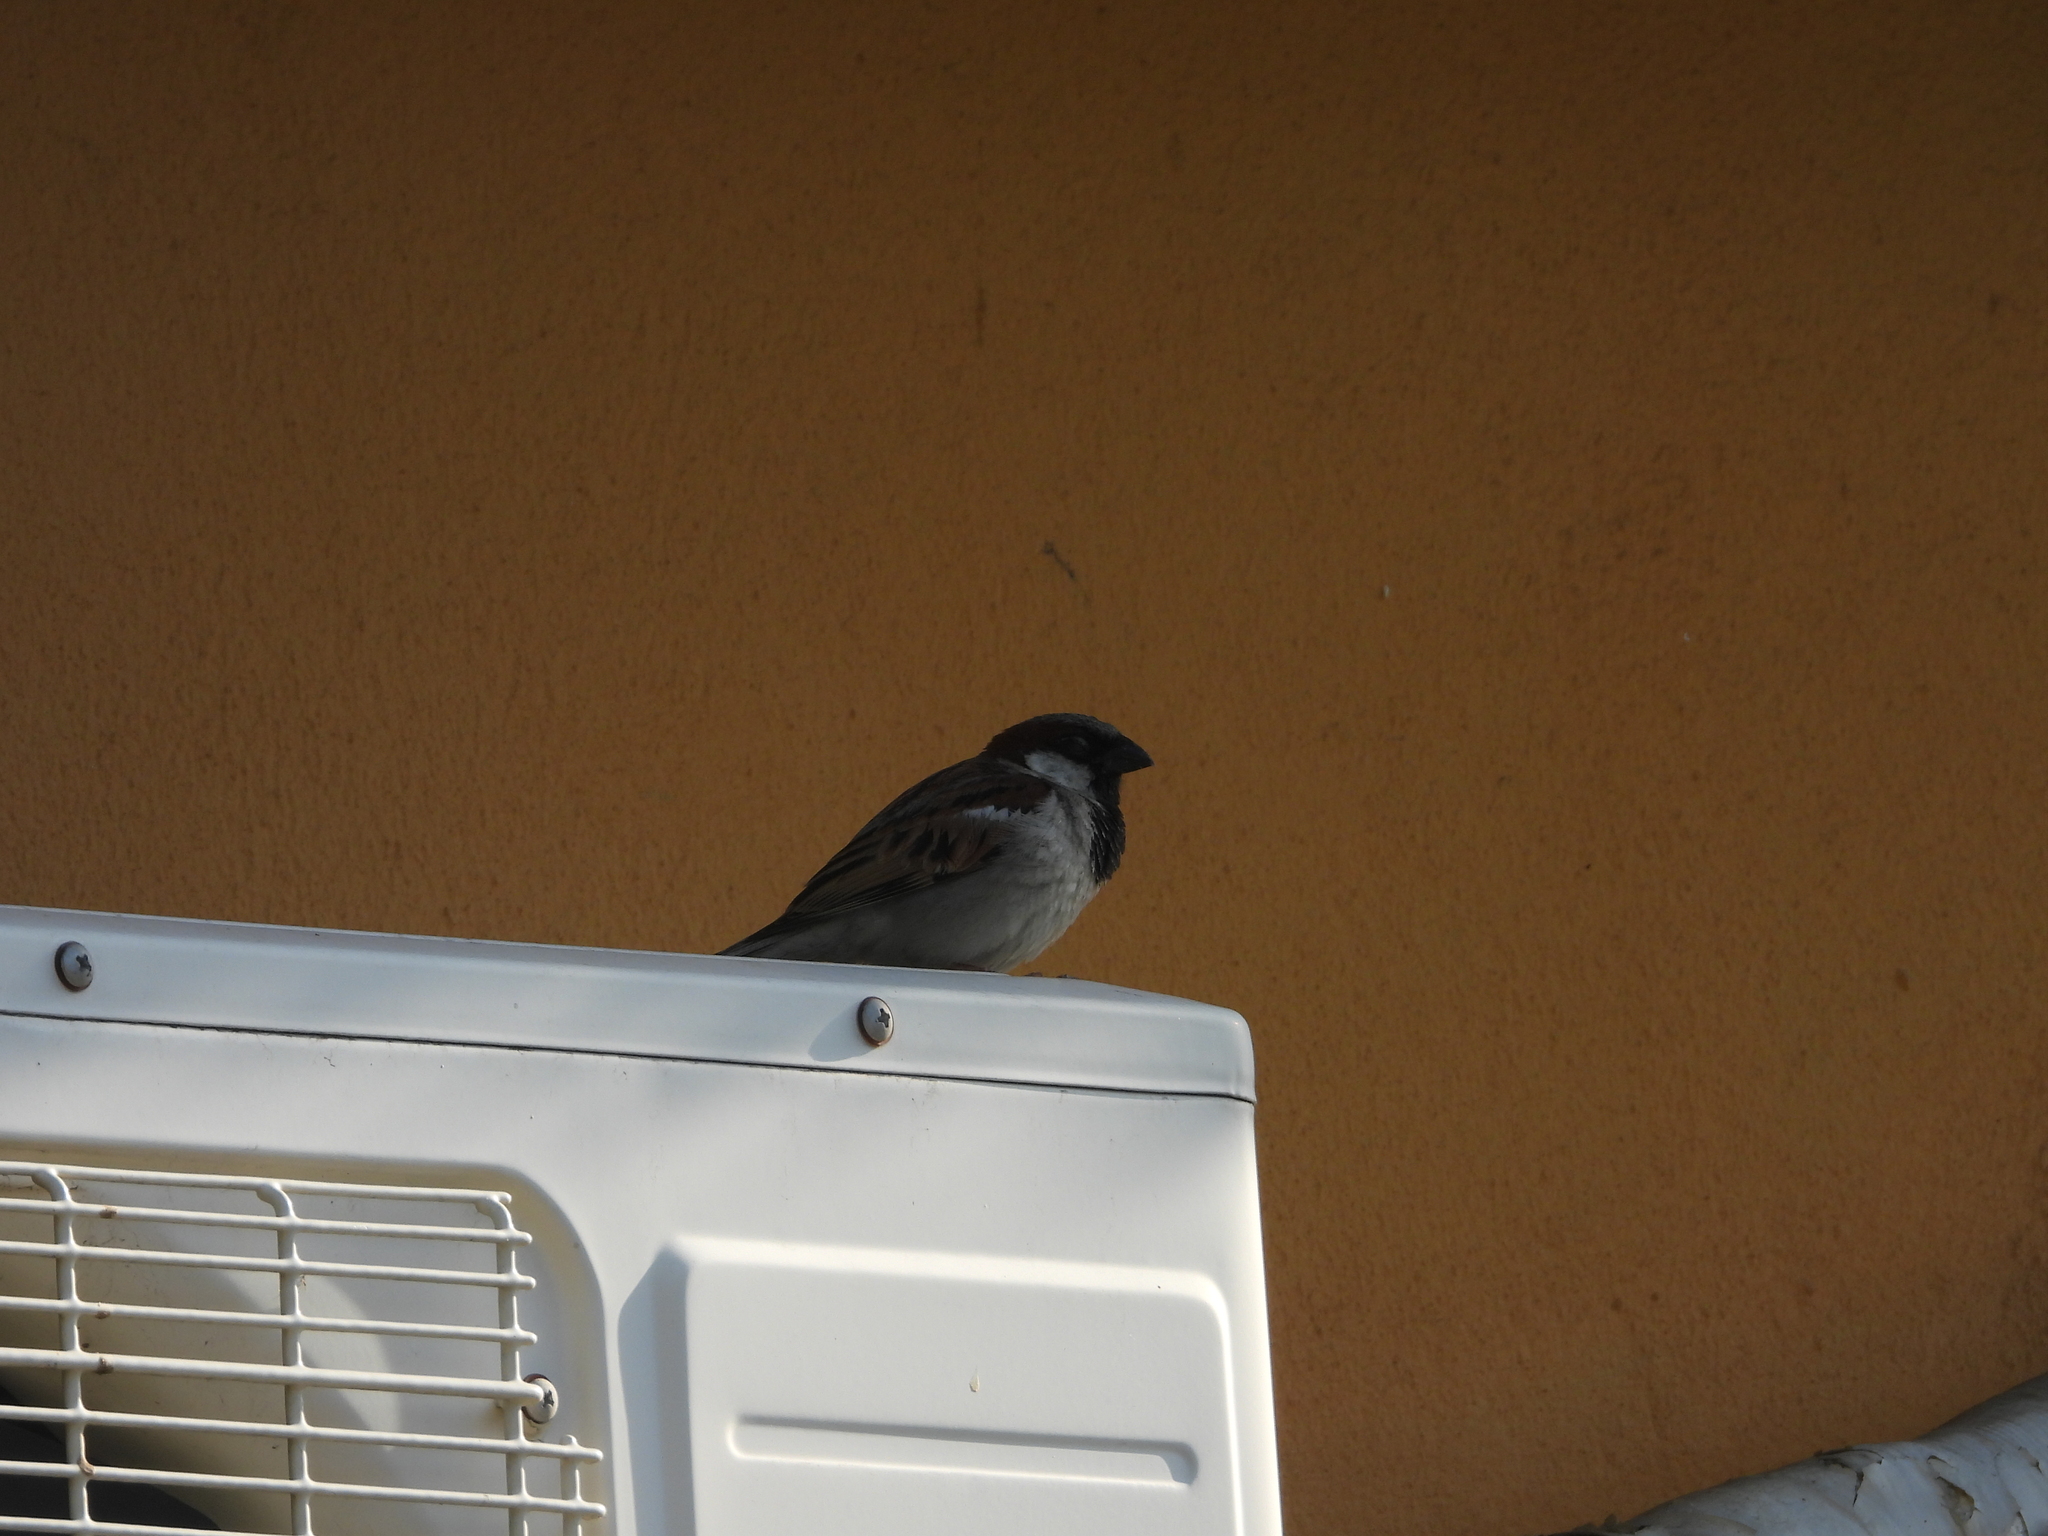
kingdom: Animalia
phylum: Chordata
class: Aves
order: Passeriformes
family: Passeridae
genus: Passer
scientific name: Passer domesticus
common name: House sparrow
